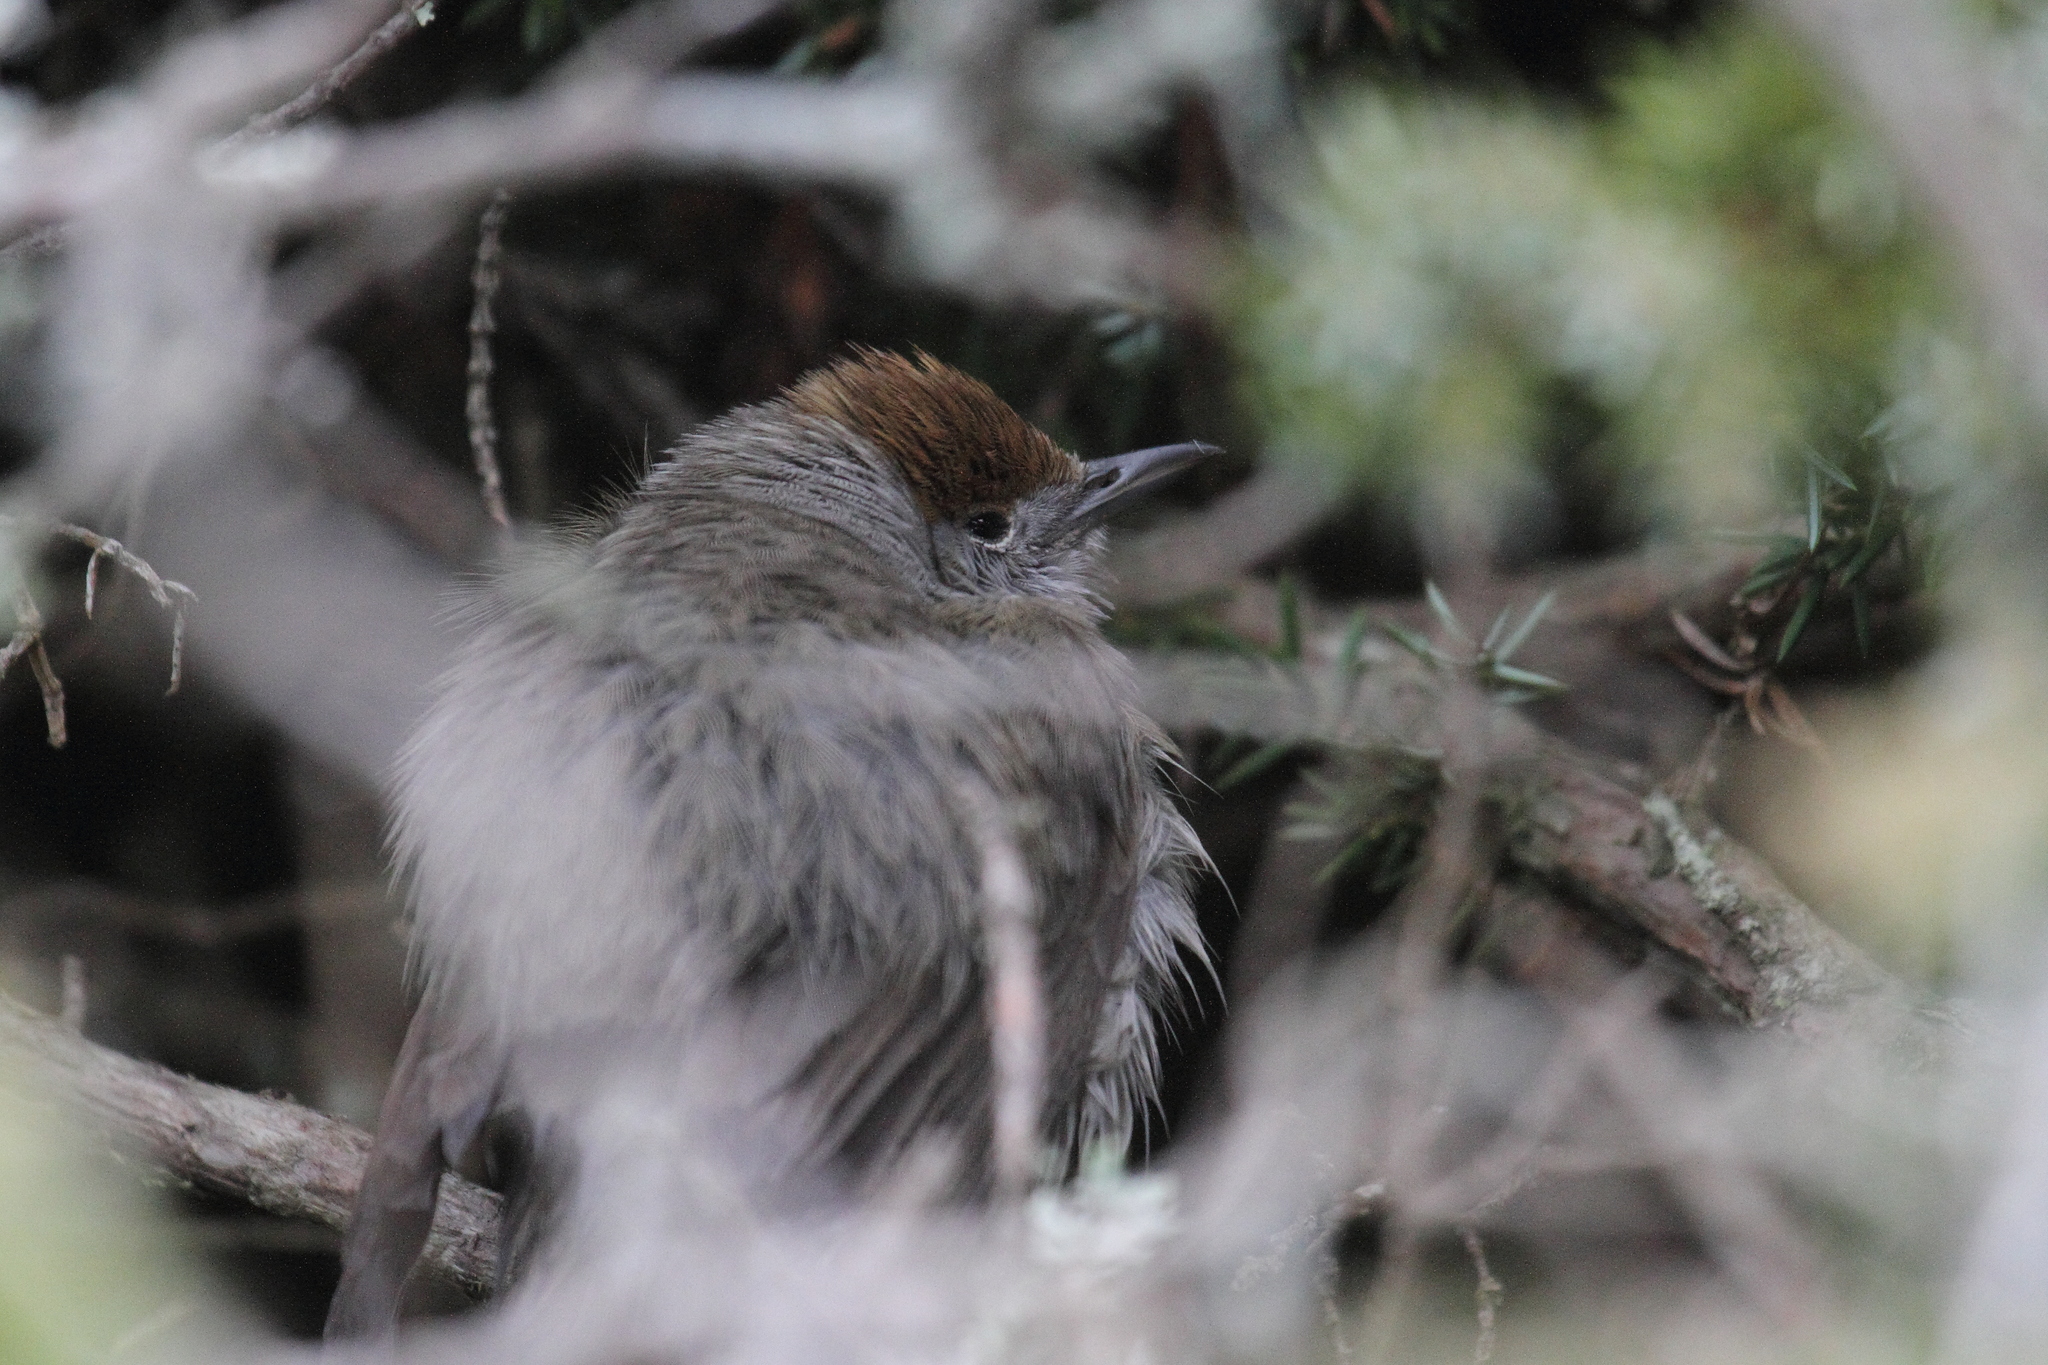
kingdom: Animalia
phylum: Chordata
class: Aves
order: Passeriformes
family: Sylviidae
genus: Sylvia
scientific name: Sylvia atricapilla
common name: Eurasian blackcap
